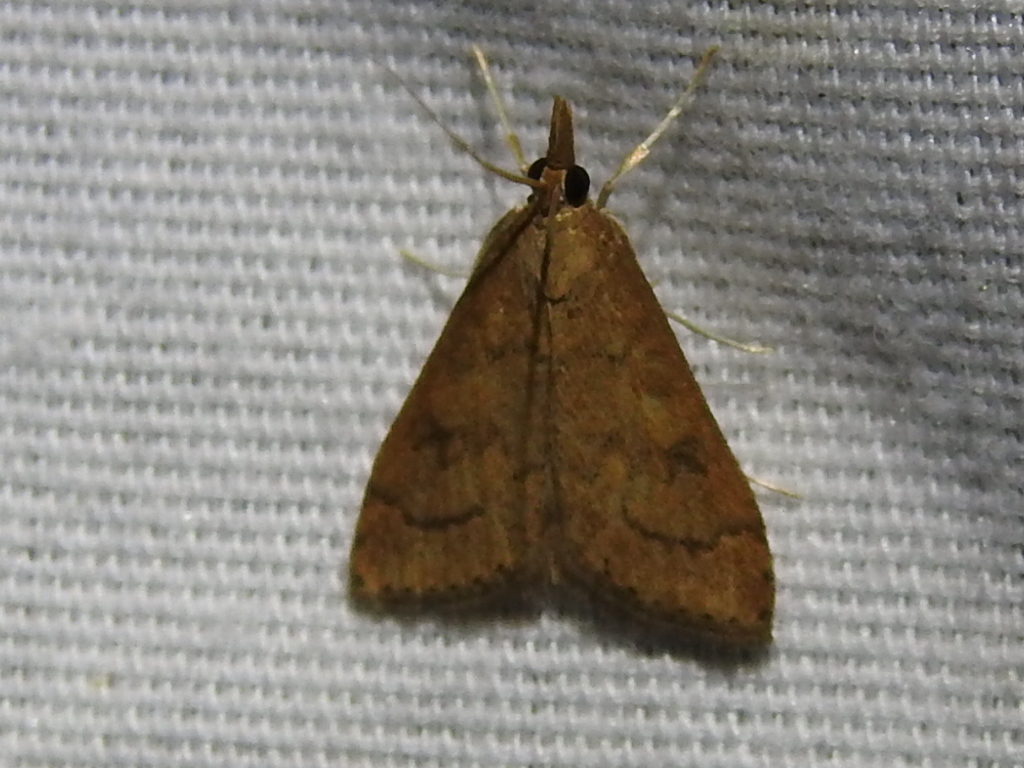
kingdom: Animalia
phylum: Arthropoda
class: Insecta
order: Lepidoptera
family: Crambidae
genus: Udea
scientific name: Udea rubigalis
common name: Celery leaftier moth
